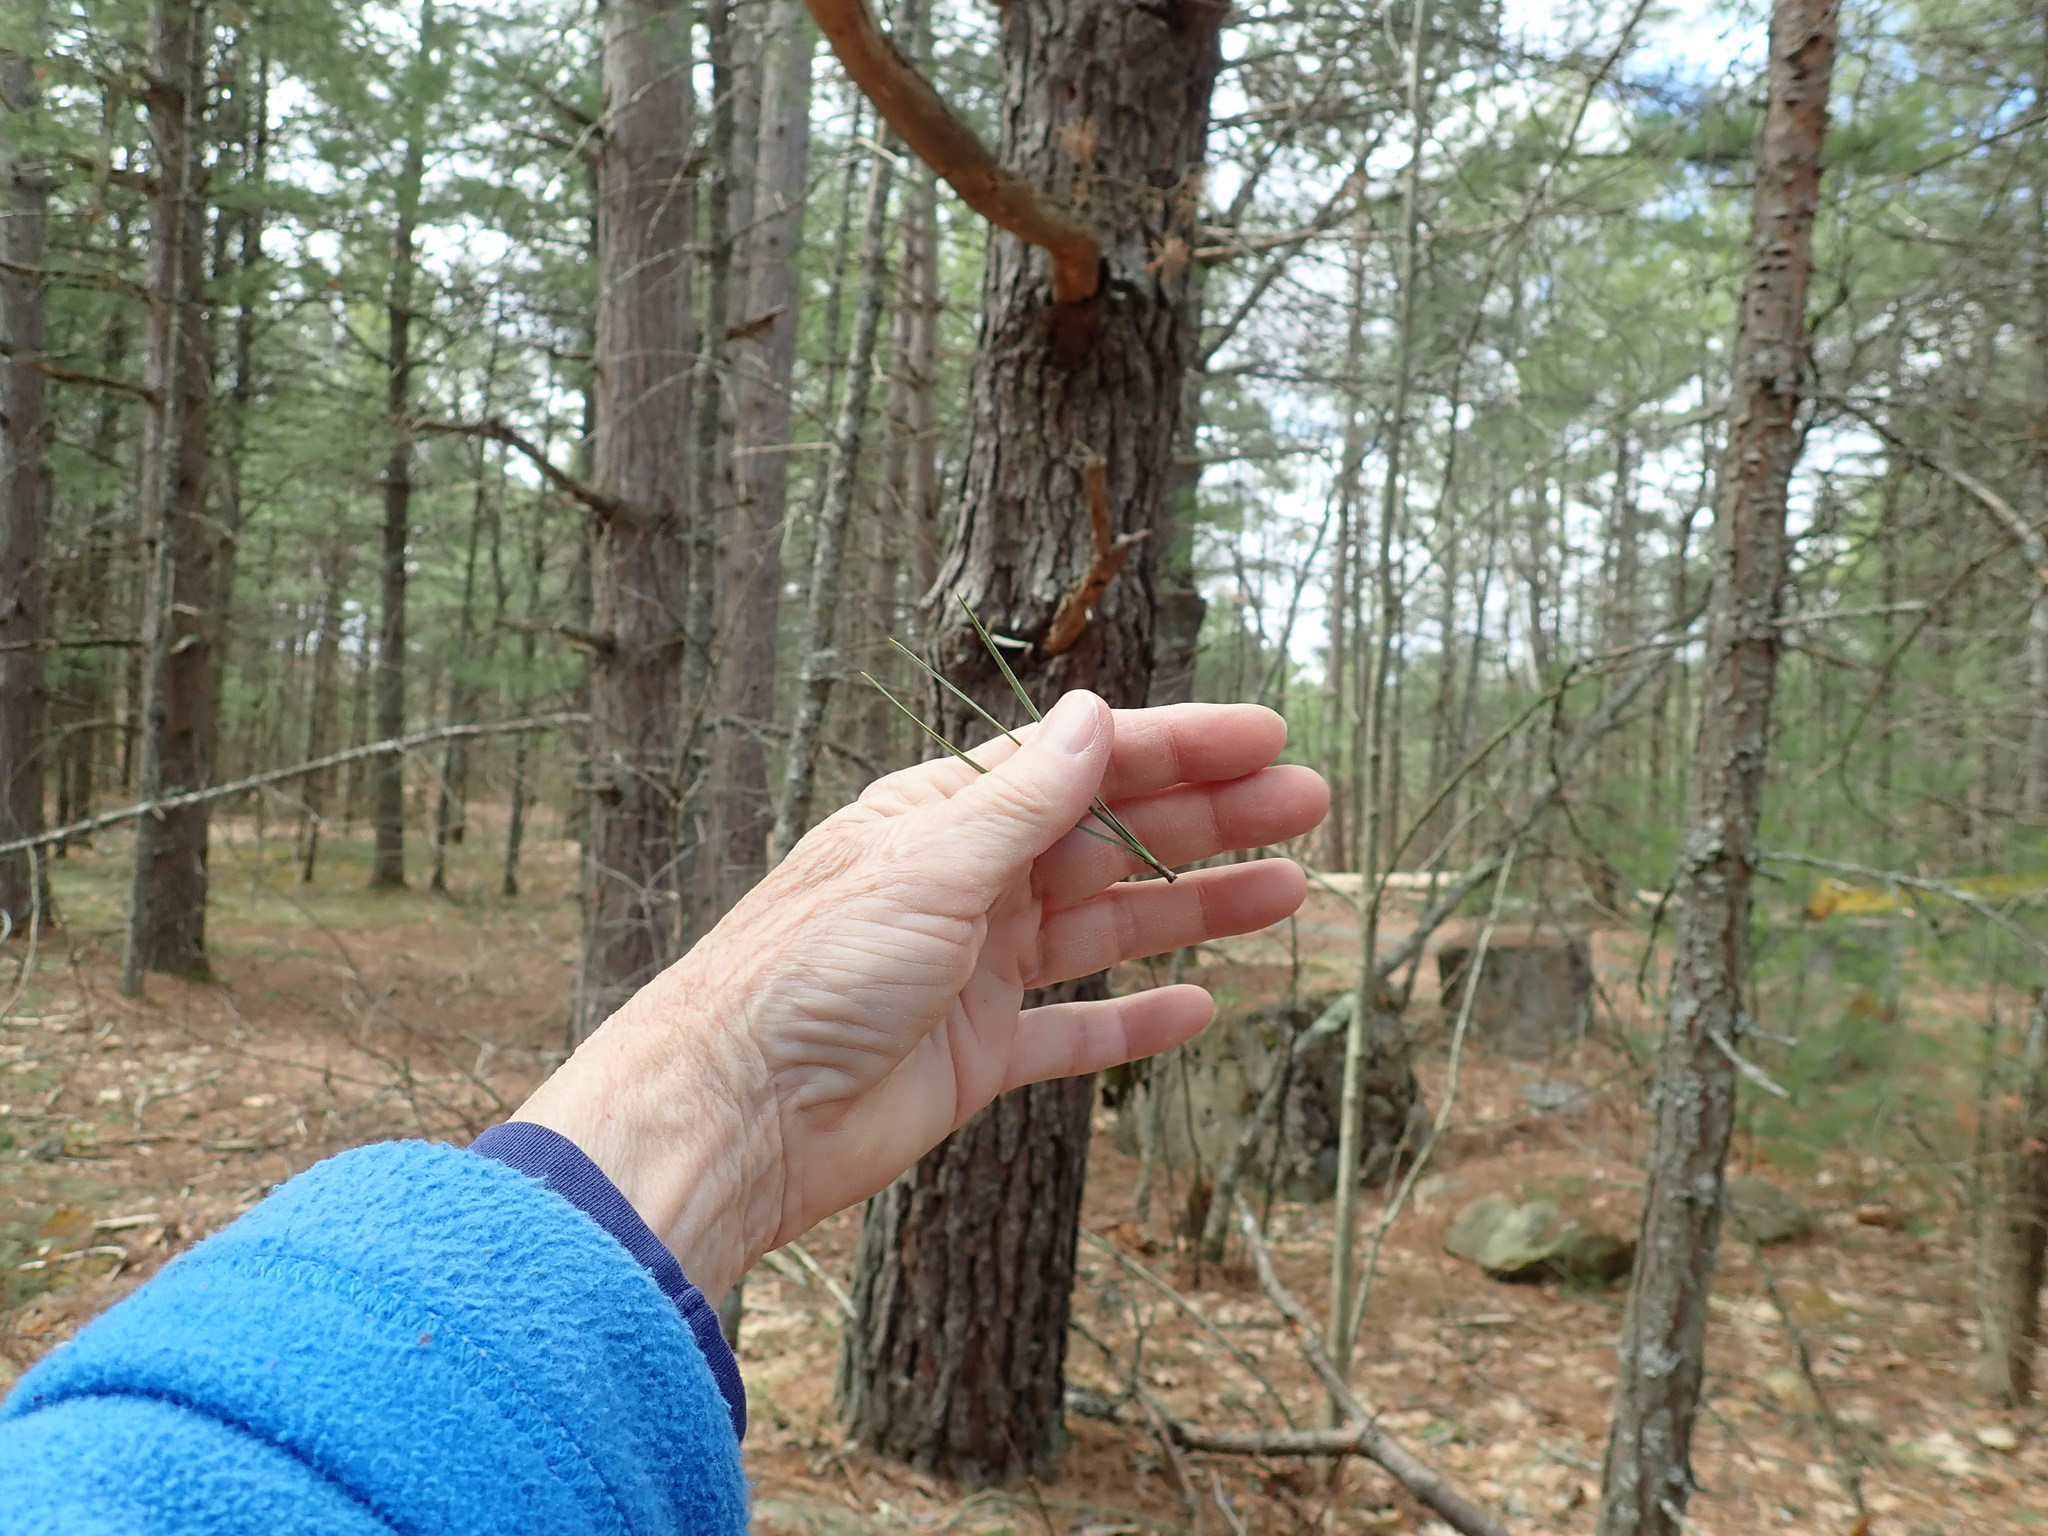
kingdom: Plantae
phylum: Tracheophyta
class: Pinopsida
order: Pinales
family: Pinaceae
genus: Pinus
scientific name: Pinus rigida
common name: Pitch pine
